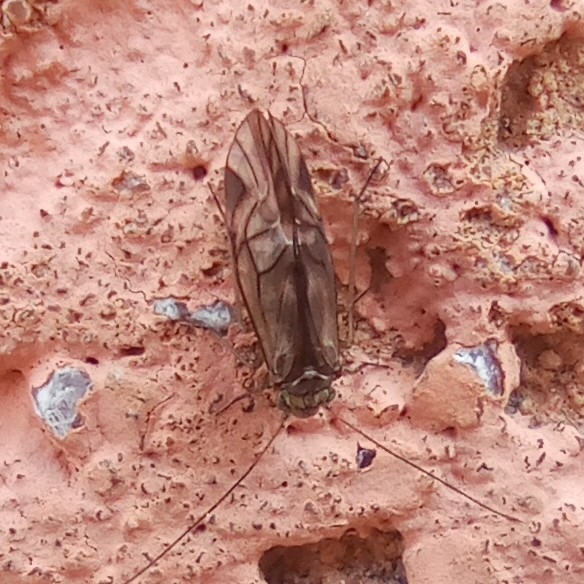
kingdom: Animalia
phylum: Arthropoda
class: Insecta
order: Psocodea
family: Psocidae
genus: Metylophorus
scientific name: Metylophorus nebulosus
